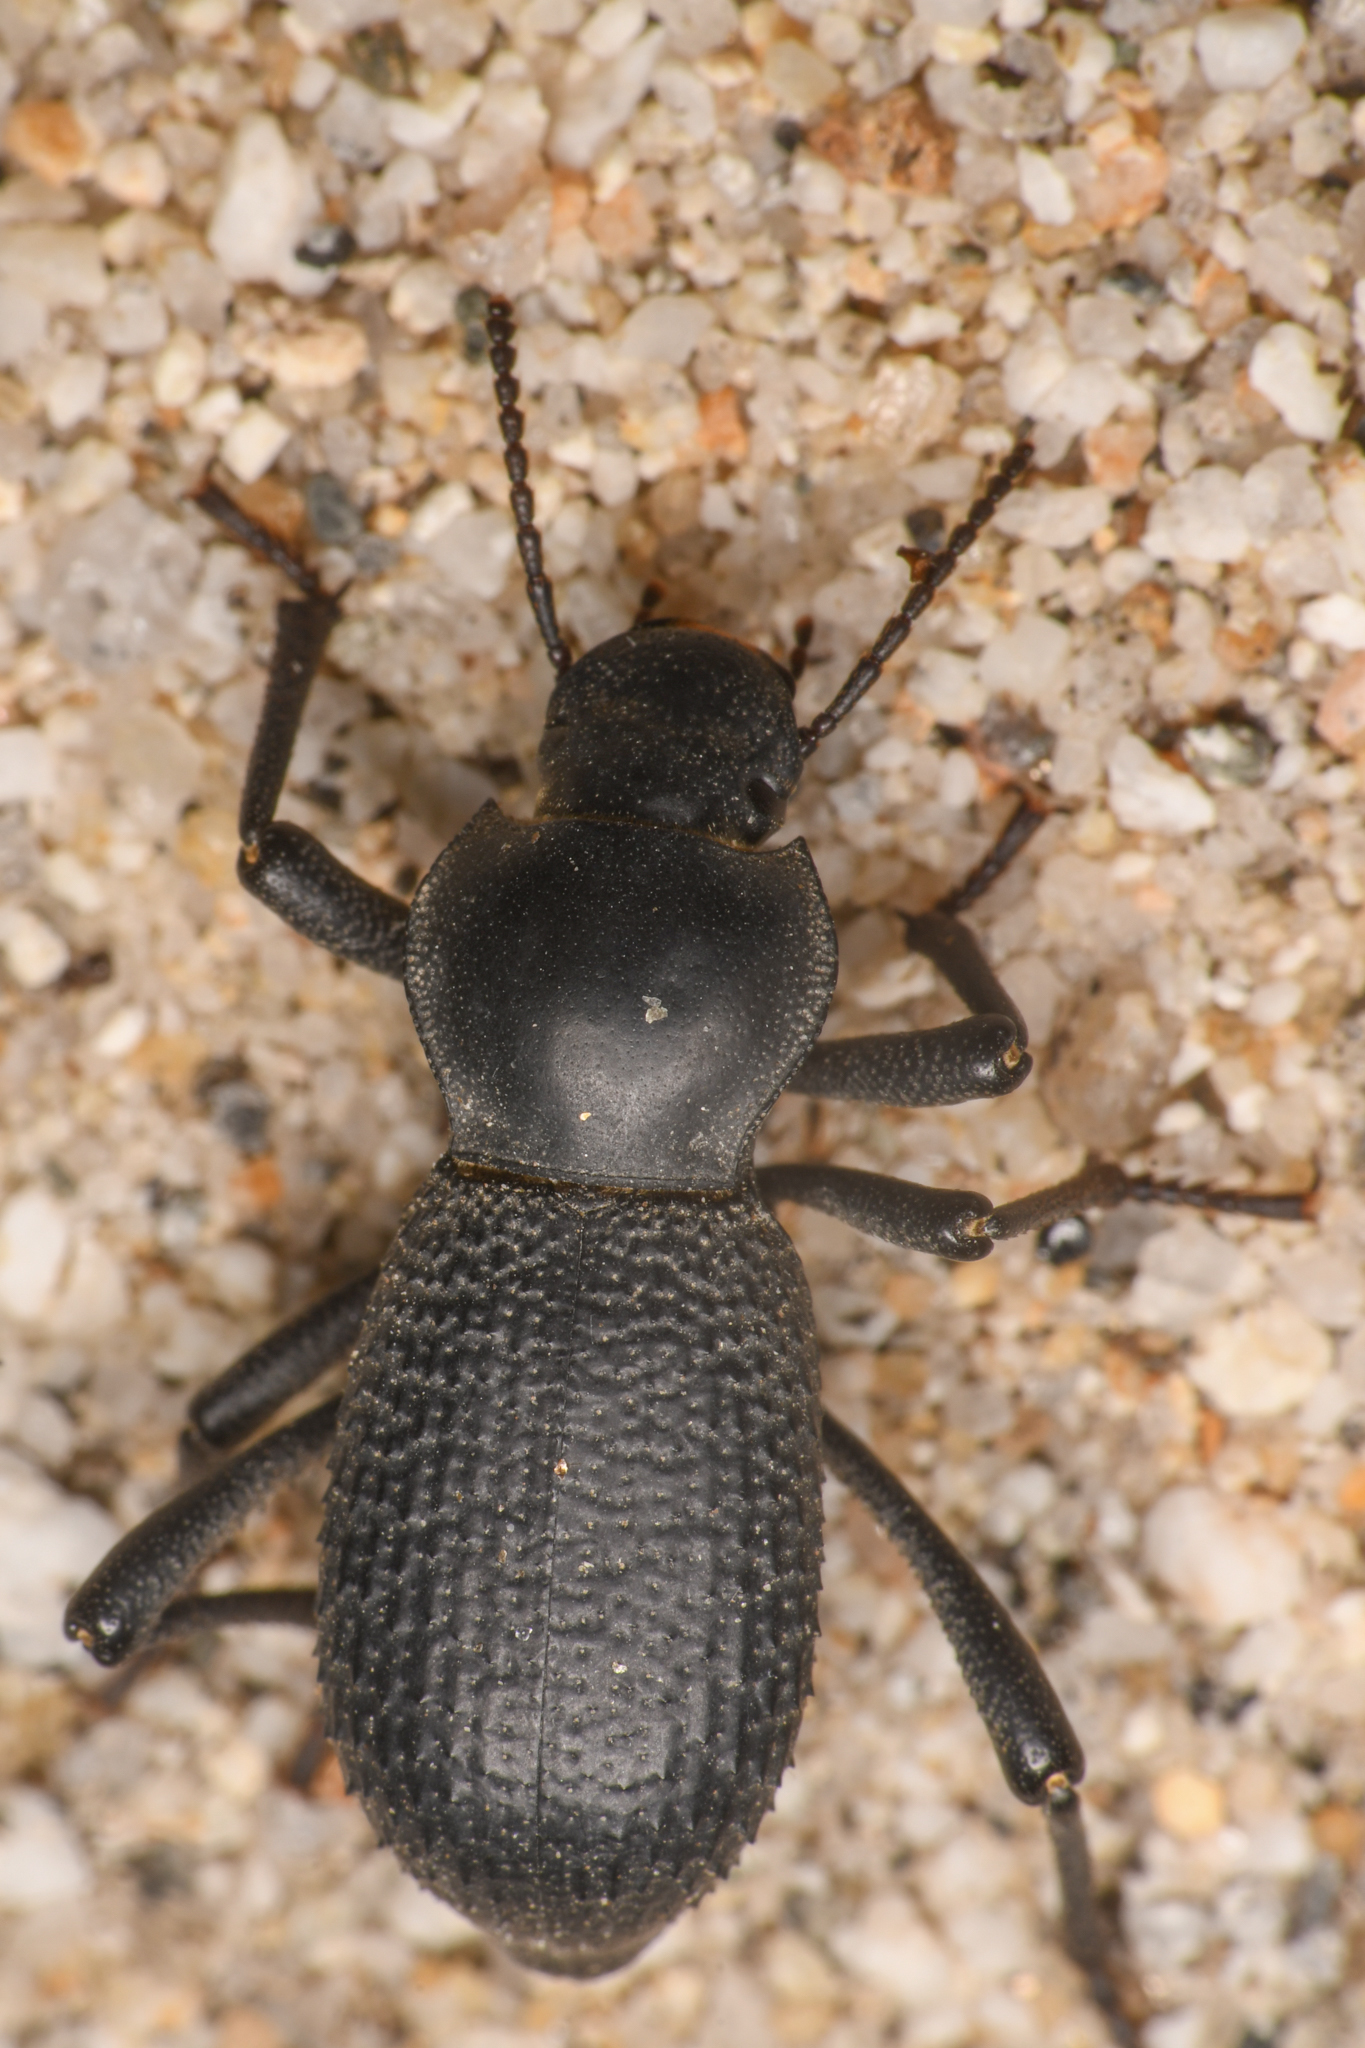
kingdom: Animalia
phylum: Arthropoda
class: Insecta
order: Coleoptera
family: Tenebrionidae
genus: Cryptoglossa
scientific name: Cryptoglossa muricata
